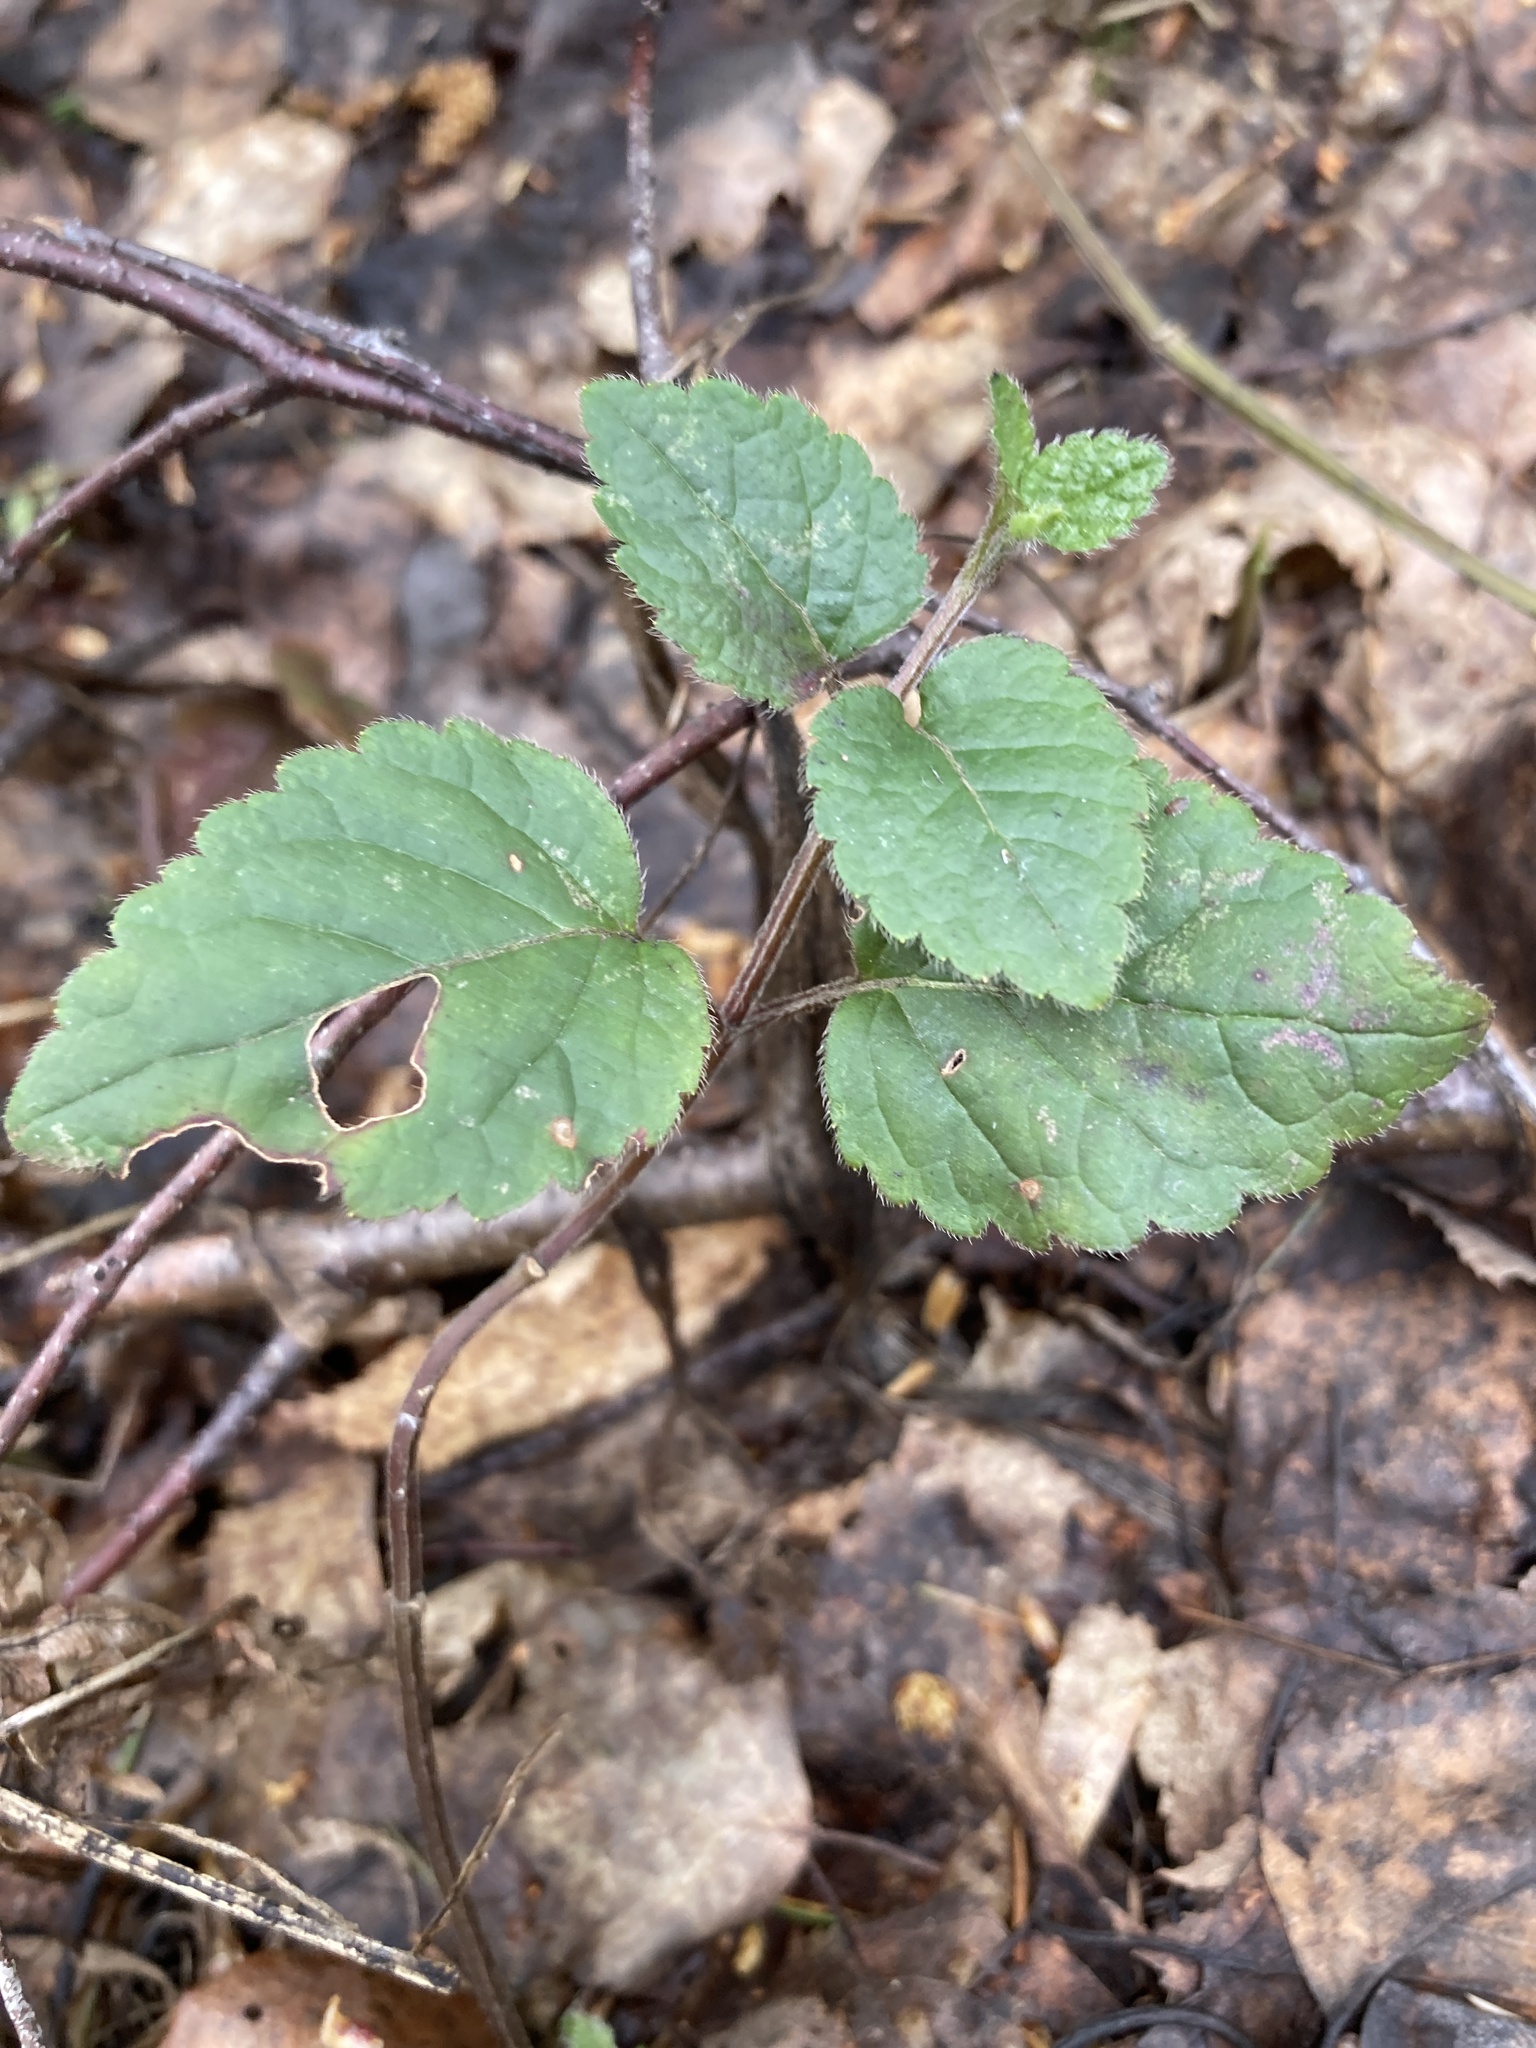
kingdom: Plantae
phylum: Tracheophyta
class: Magnoliopsida
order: Lamiales
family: Lamiaceae
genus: Lamium
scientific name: Lamium galeobdolon
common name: Yellow archangel
